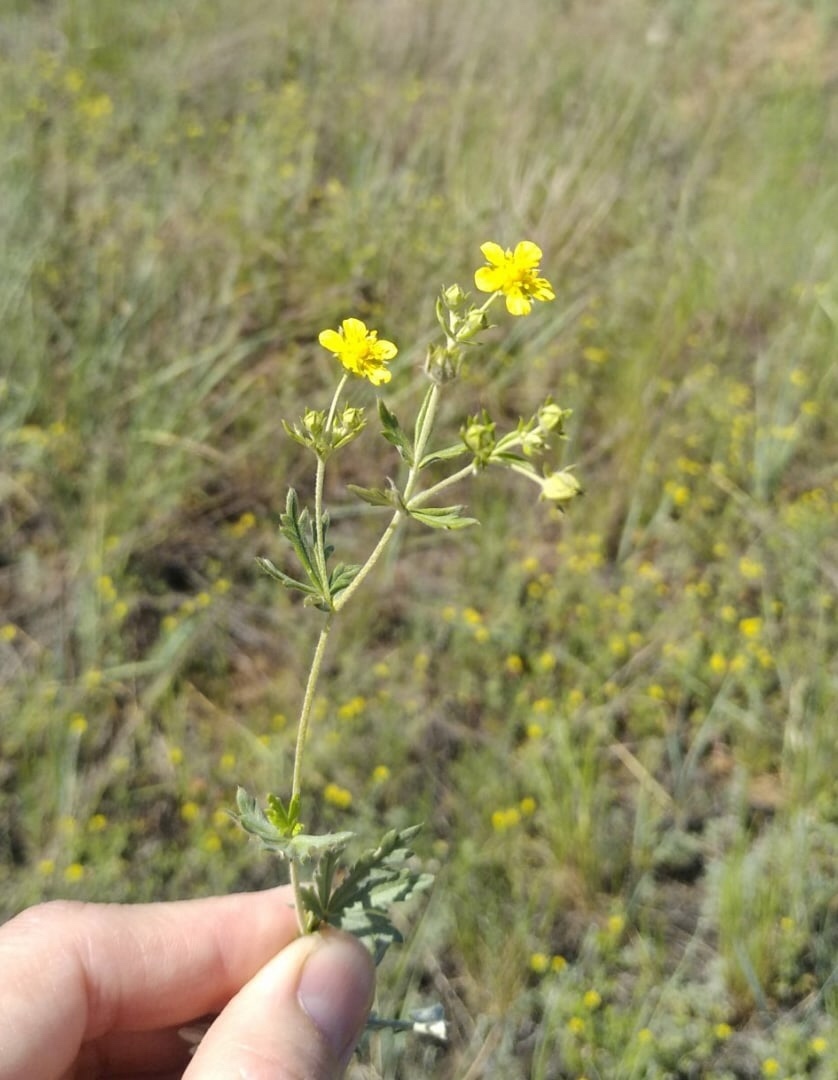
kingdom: Plantae
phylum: Tracheophyta
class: Magnoliopsida
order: Rosales
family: Rosaceae
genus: Potentilla
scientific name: Potentilla argentea
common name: Hoary cinquefoil
